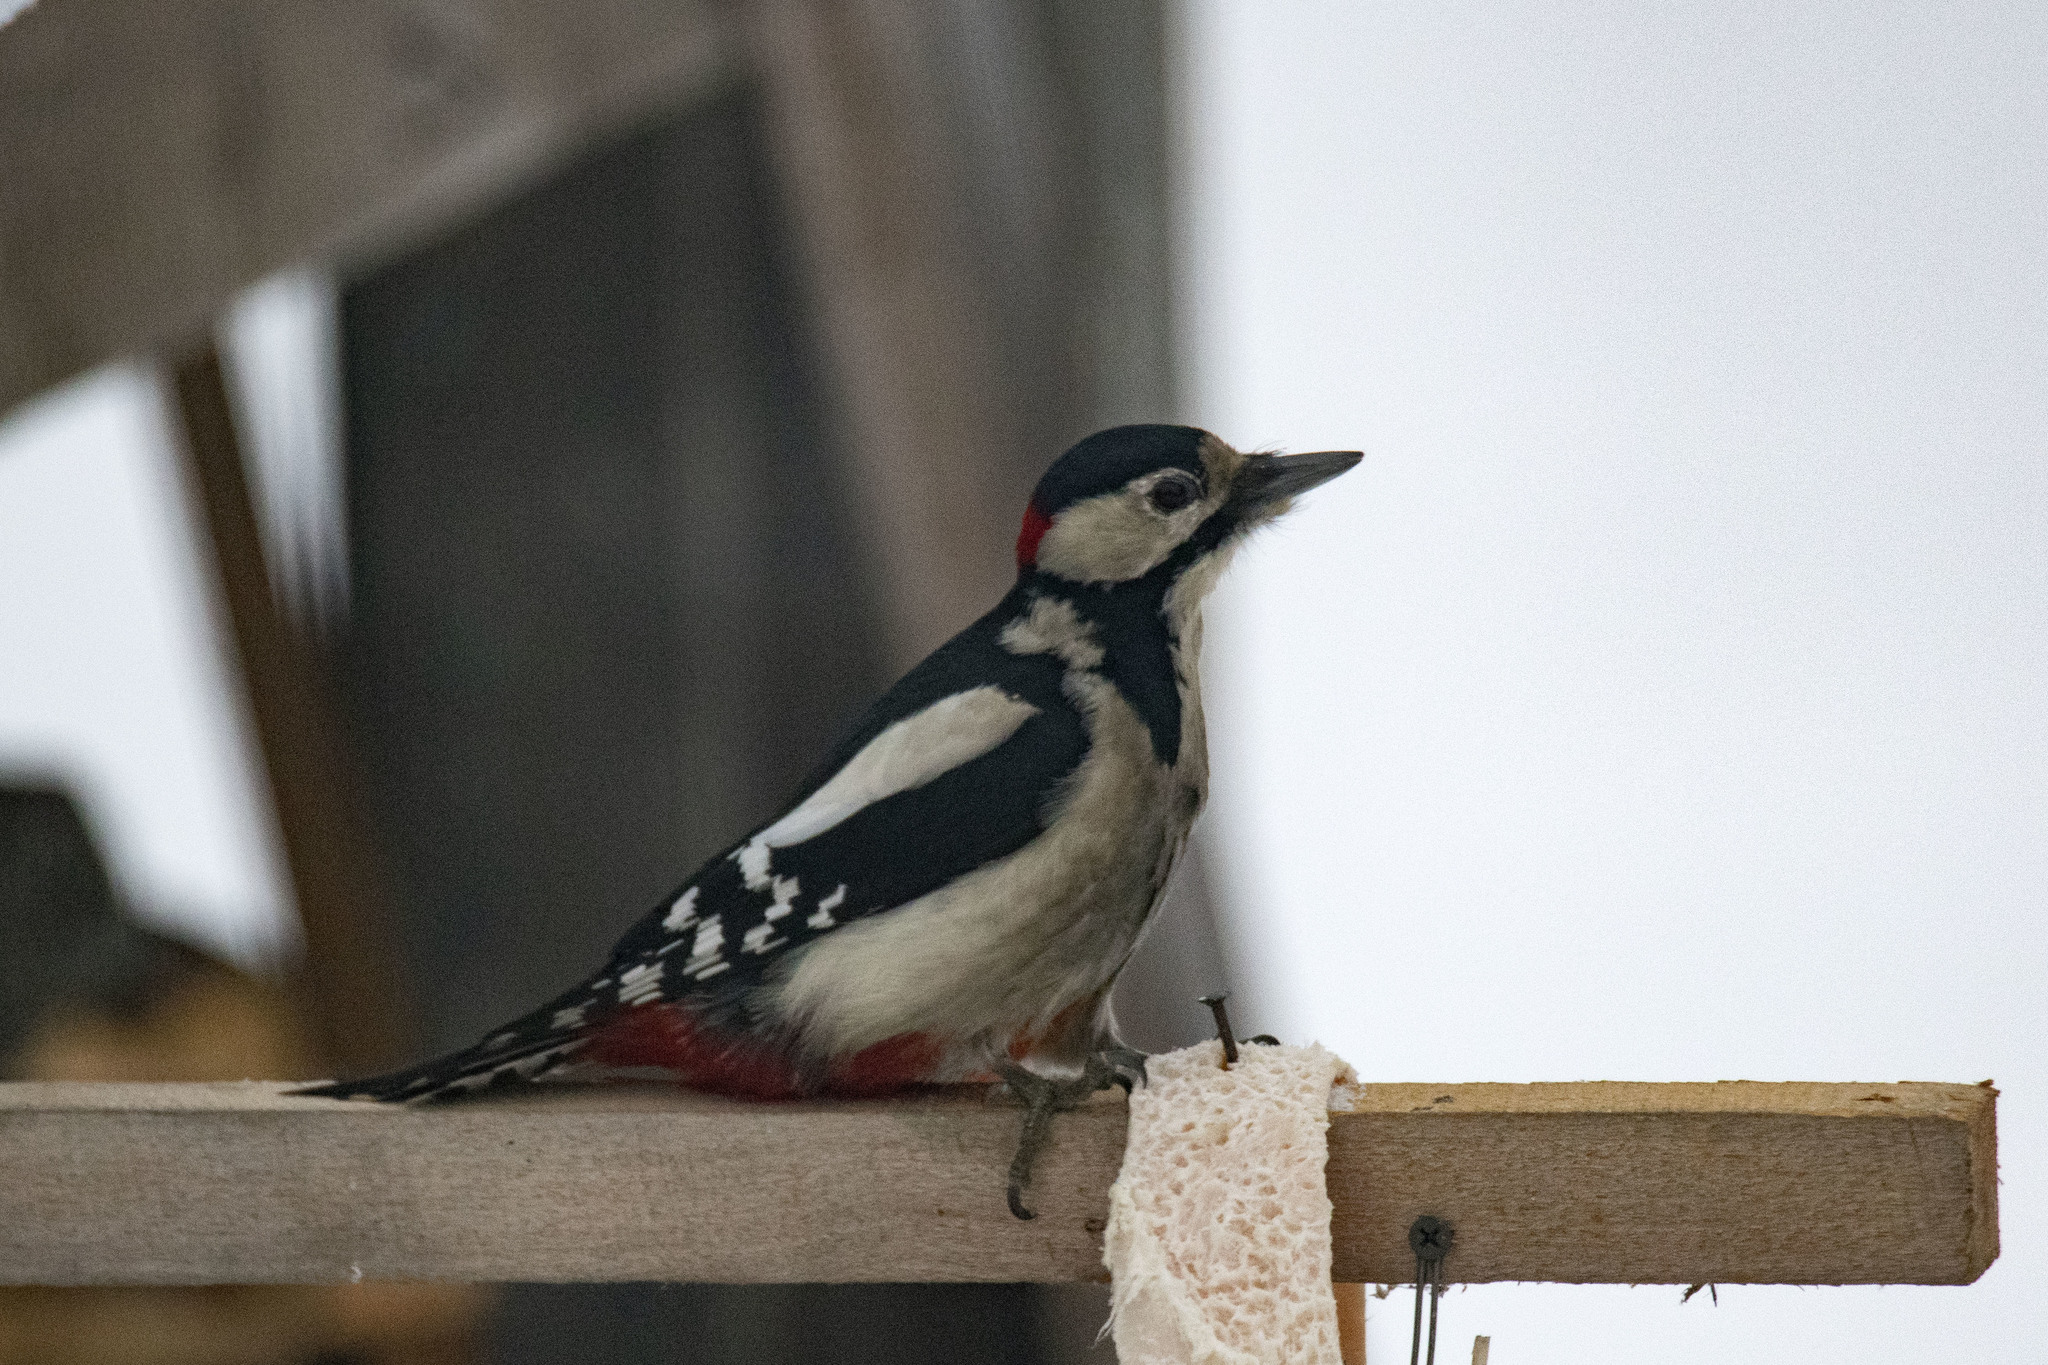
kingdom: Animalia
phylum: Chordata
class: Aves
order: Piciformes
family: Picidae
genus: Dendrocopos
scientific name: Dendrocopos major
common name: Great spotted woodpecker
